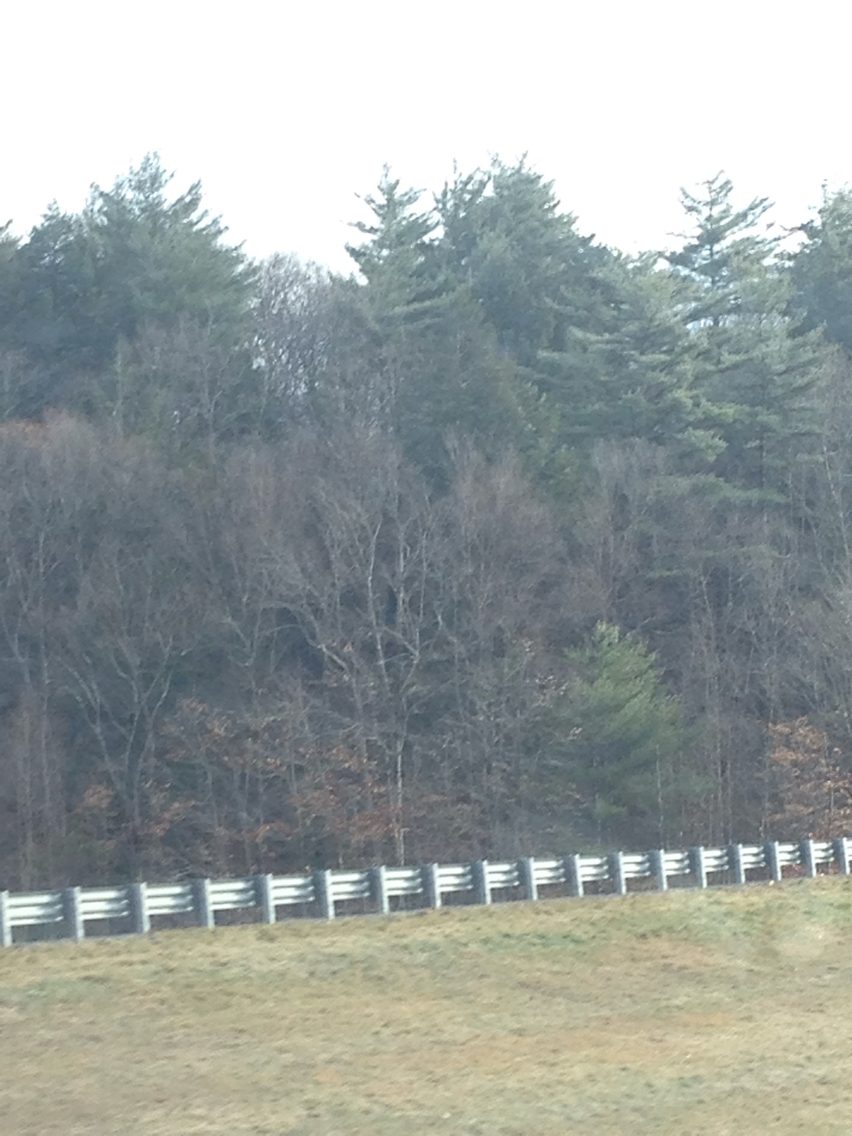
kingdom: Plantae
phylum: Tracheophyta
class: Pinopsida
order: Pinales
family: Pinaceae
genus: Pinus
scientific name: Pinus strobus
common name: Weymouth pine
